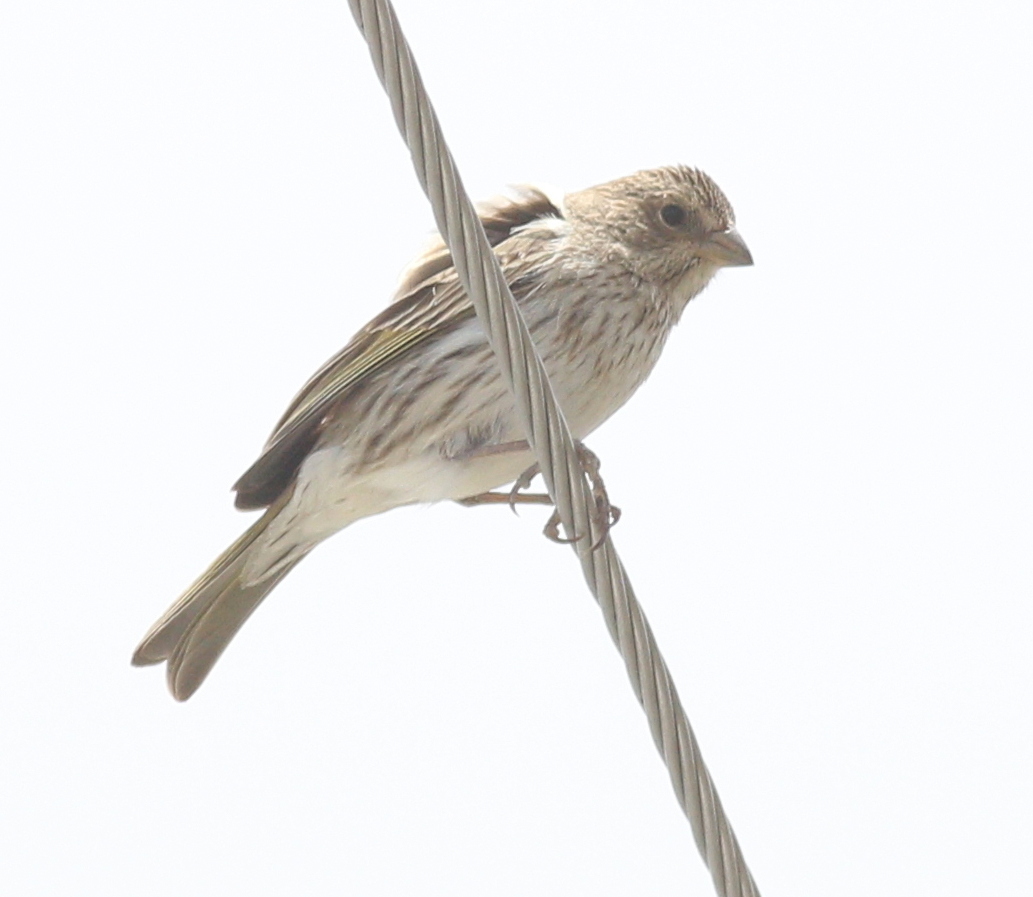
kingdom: Animalia
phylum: Chordata
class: Aves
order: Passeriformes
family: Thraupidae
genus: Sicalis
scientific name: Sicalis flaveola
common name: Saffron finch
